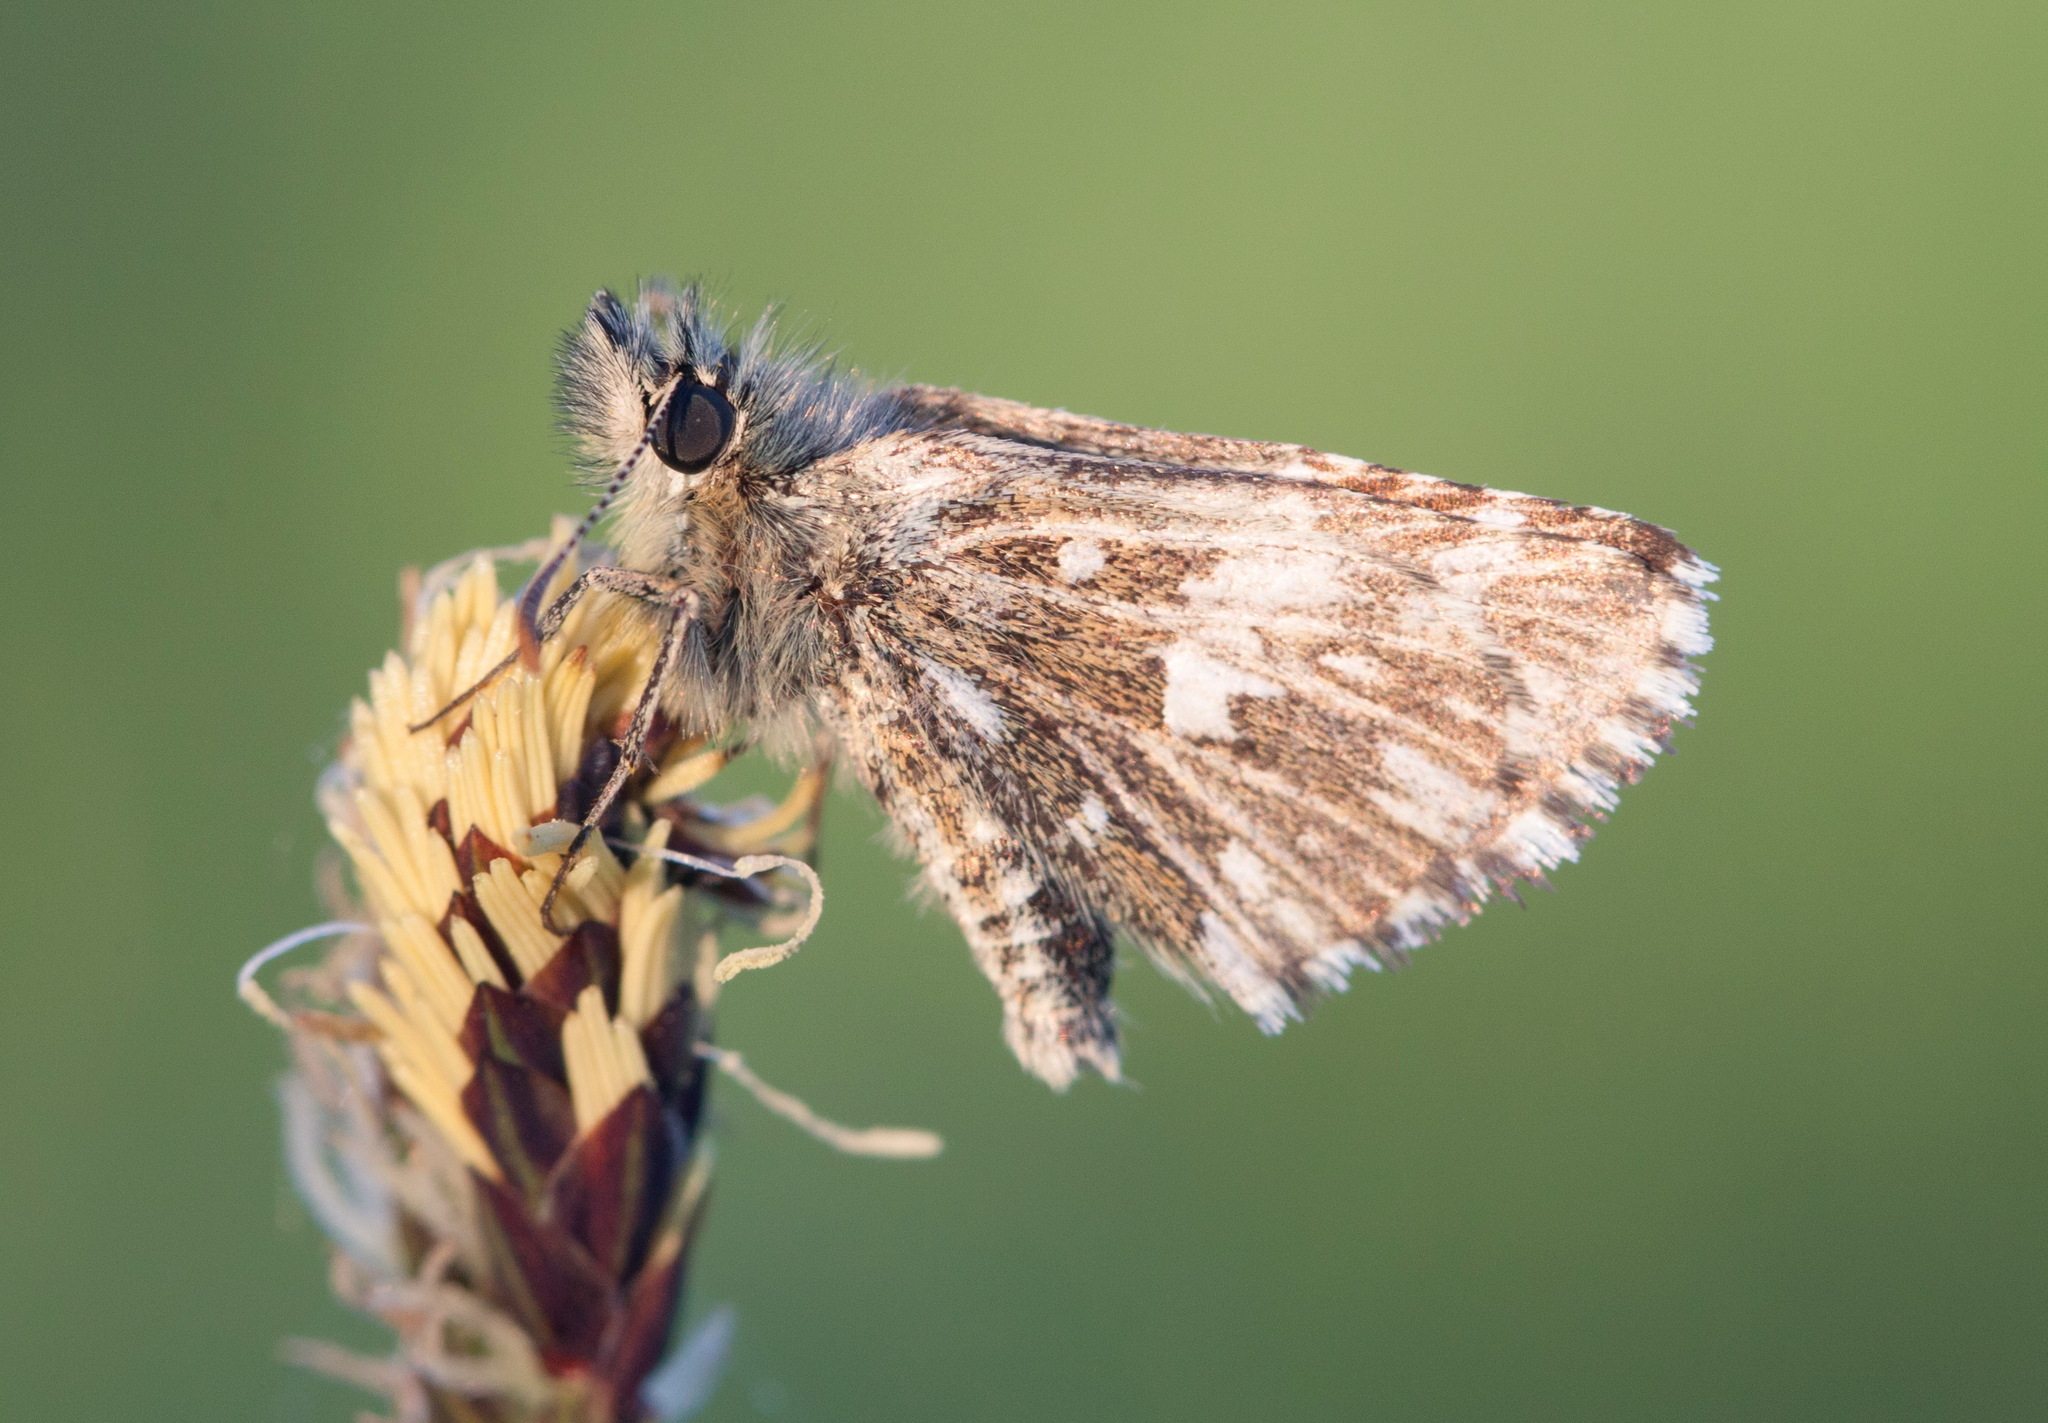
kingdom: Animalia
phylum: Arthropoda
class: Insecta
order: Lepidoptera
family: Hesperiidae
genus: Pyrgus
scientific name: Pyrgus malvae
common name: Grizzled skipper
